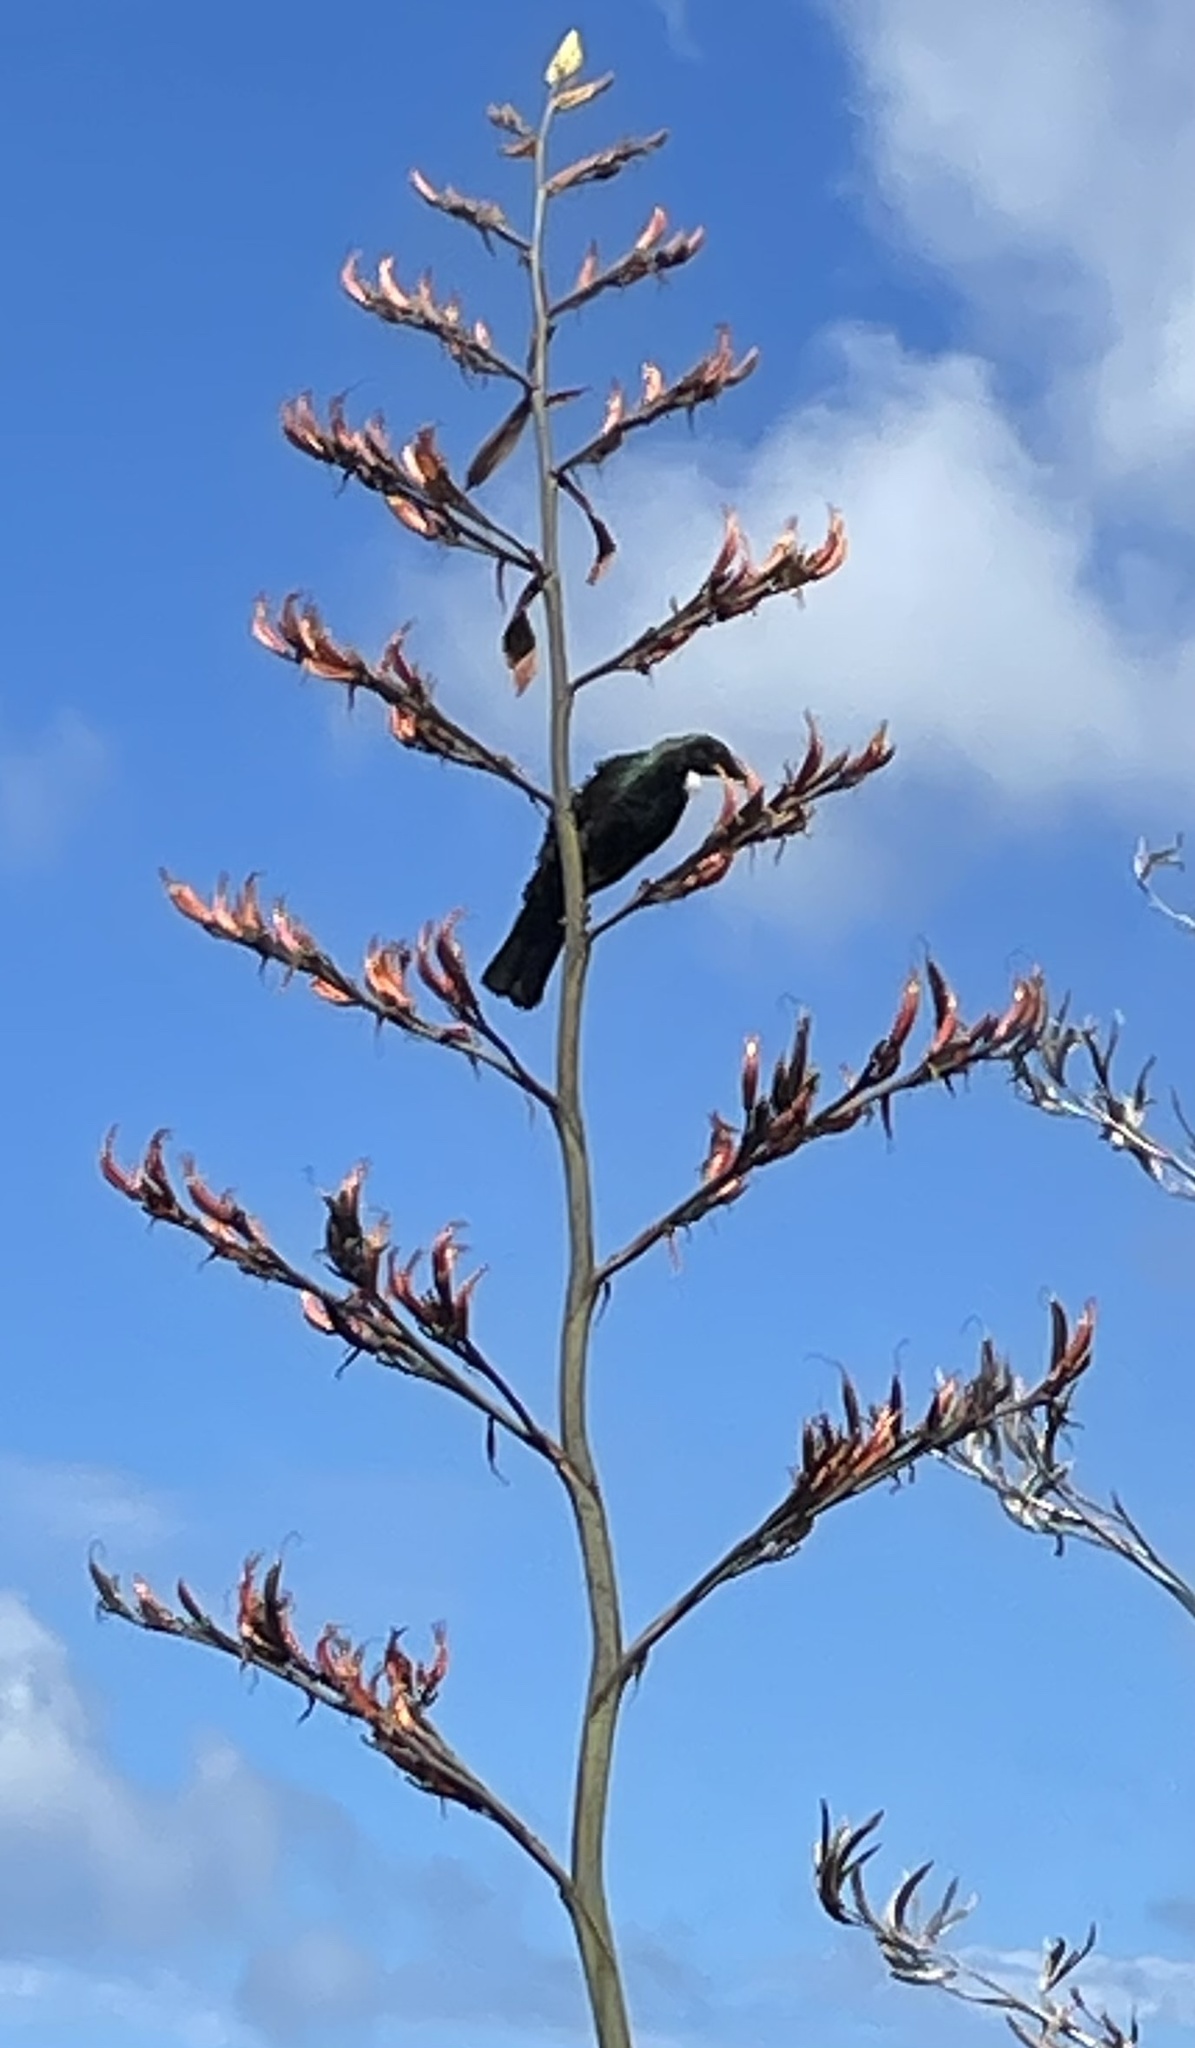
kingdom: Animalia
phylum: Chordata
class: Aves
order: Passeriformes
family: Meliphagidae
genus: Prosthemadera
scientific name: Prosthemadera novaeseelandiae
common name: Tui
